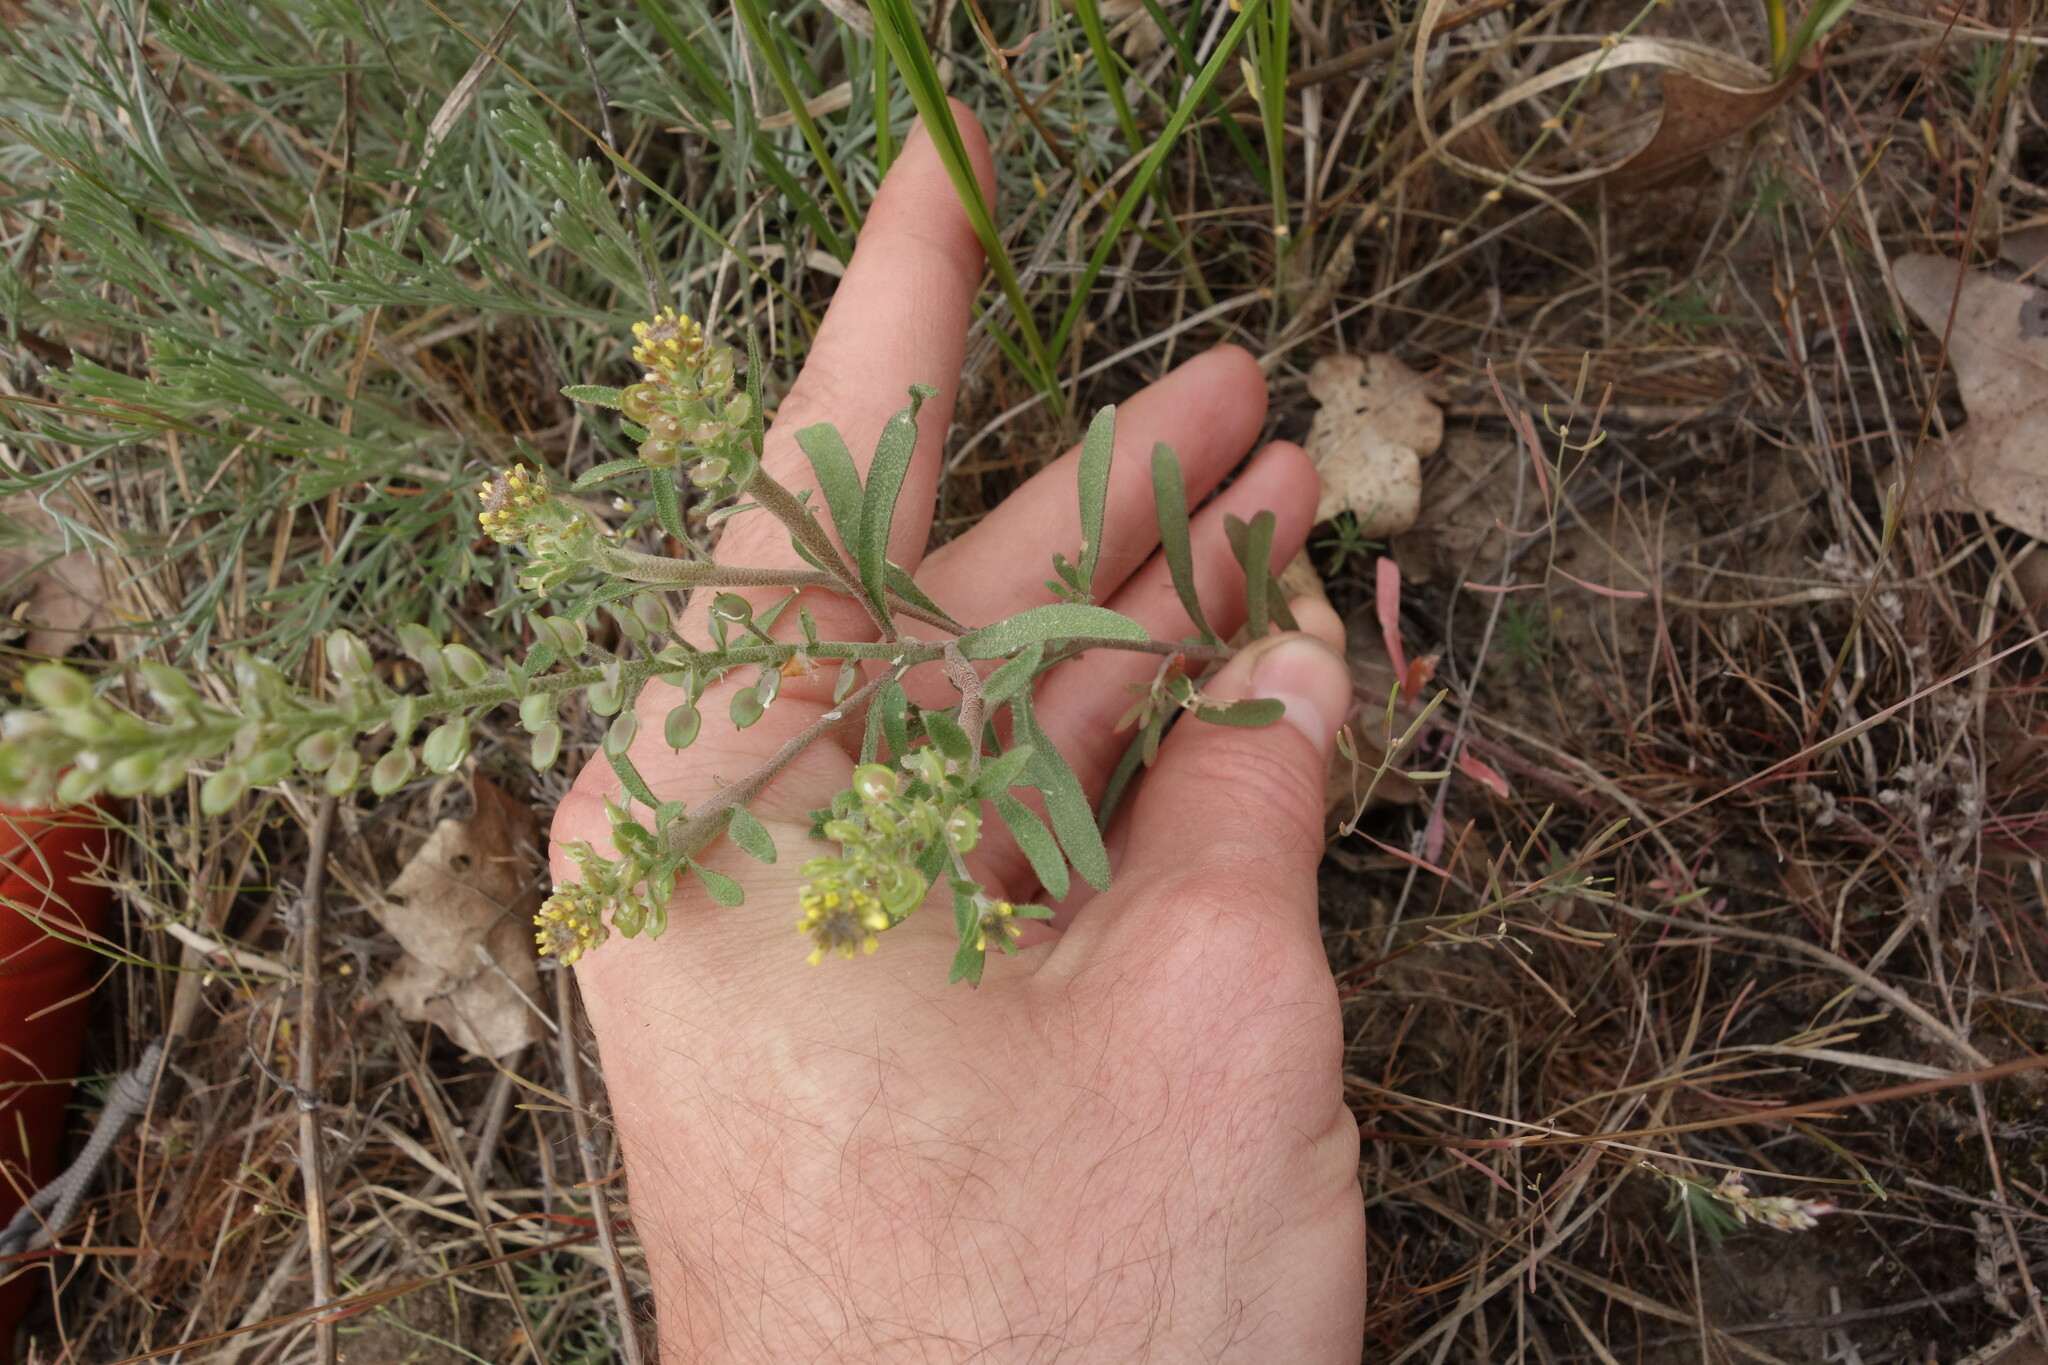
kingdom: Plantae
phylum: Tracheophyta
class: Magnoliopsida
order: Brassicales
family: Brassicaceae
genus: Alyssum
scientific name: Alyssum turkestanicum
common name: Desert alyssum
